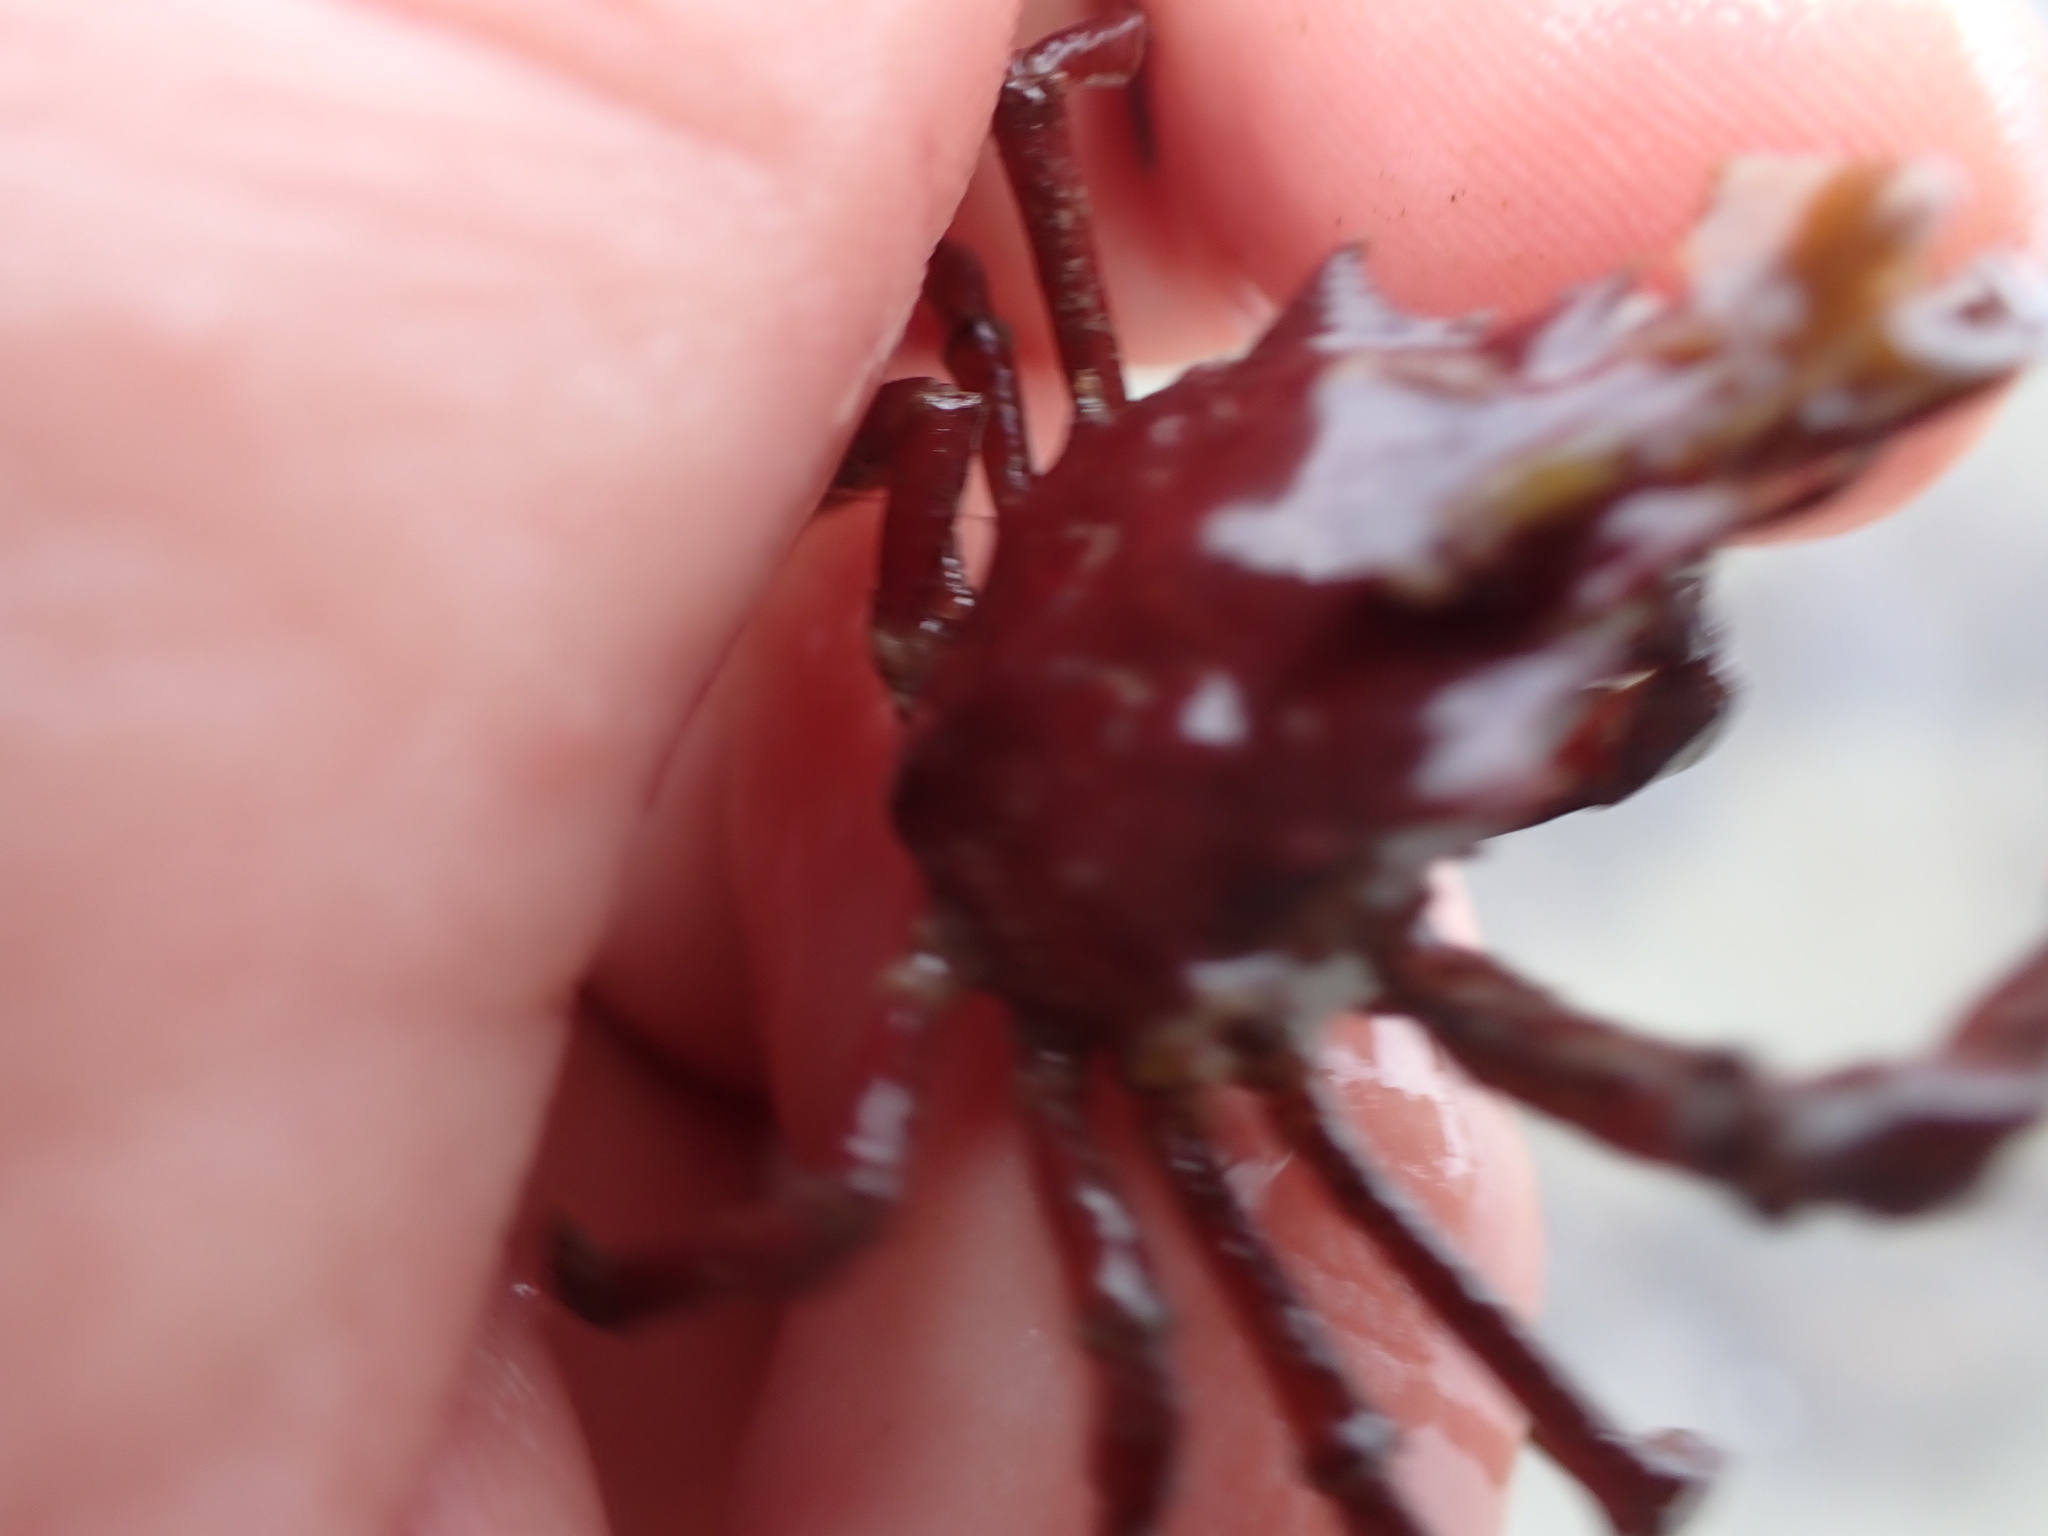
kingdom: Animalia
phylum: Arthropoda
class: Malacostraca
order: Decapoda
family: Epialtidae
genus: Pugettia
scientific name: Pugettia gracilis
